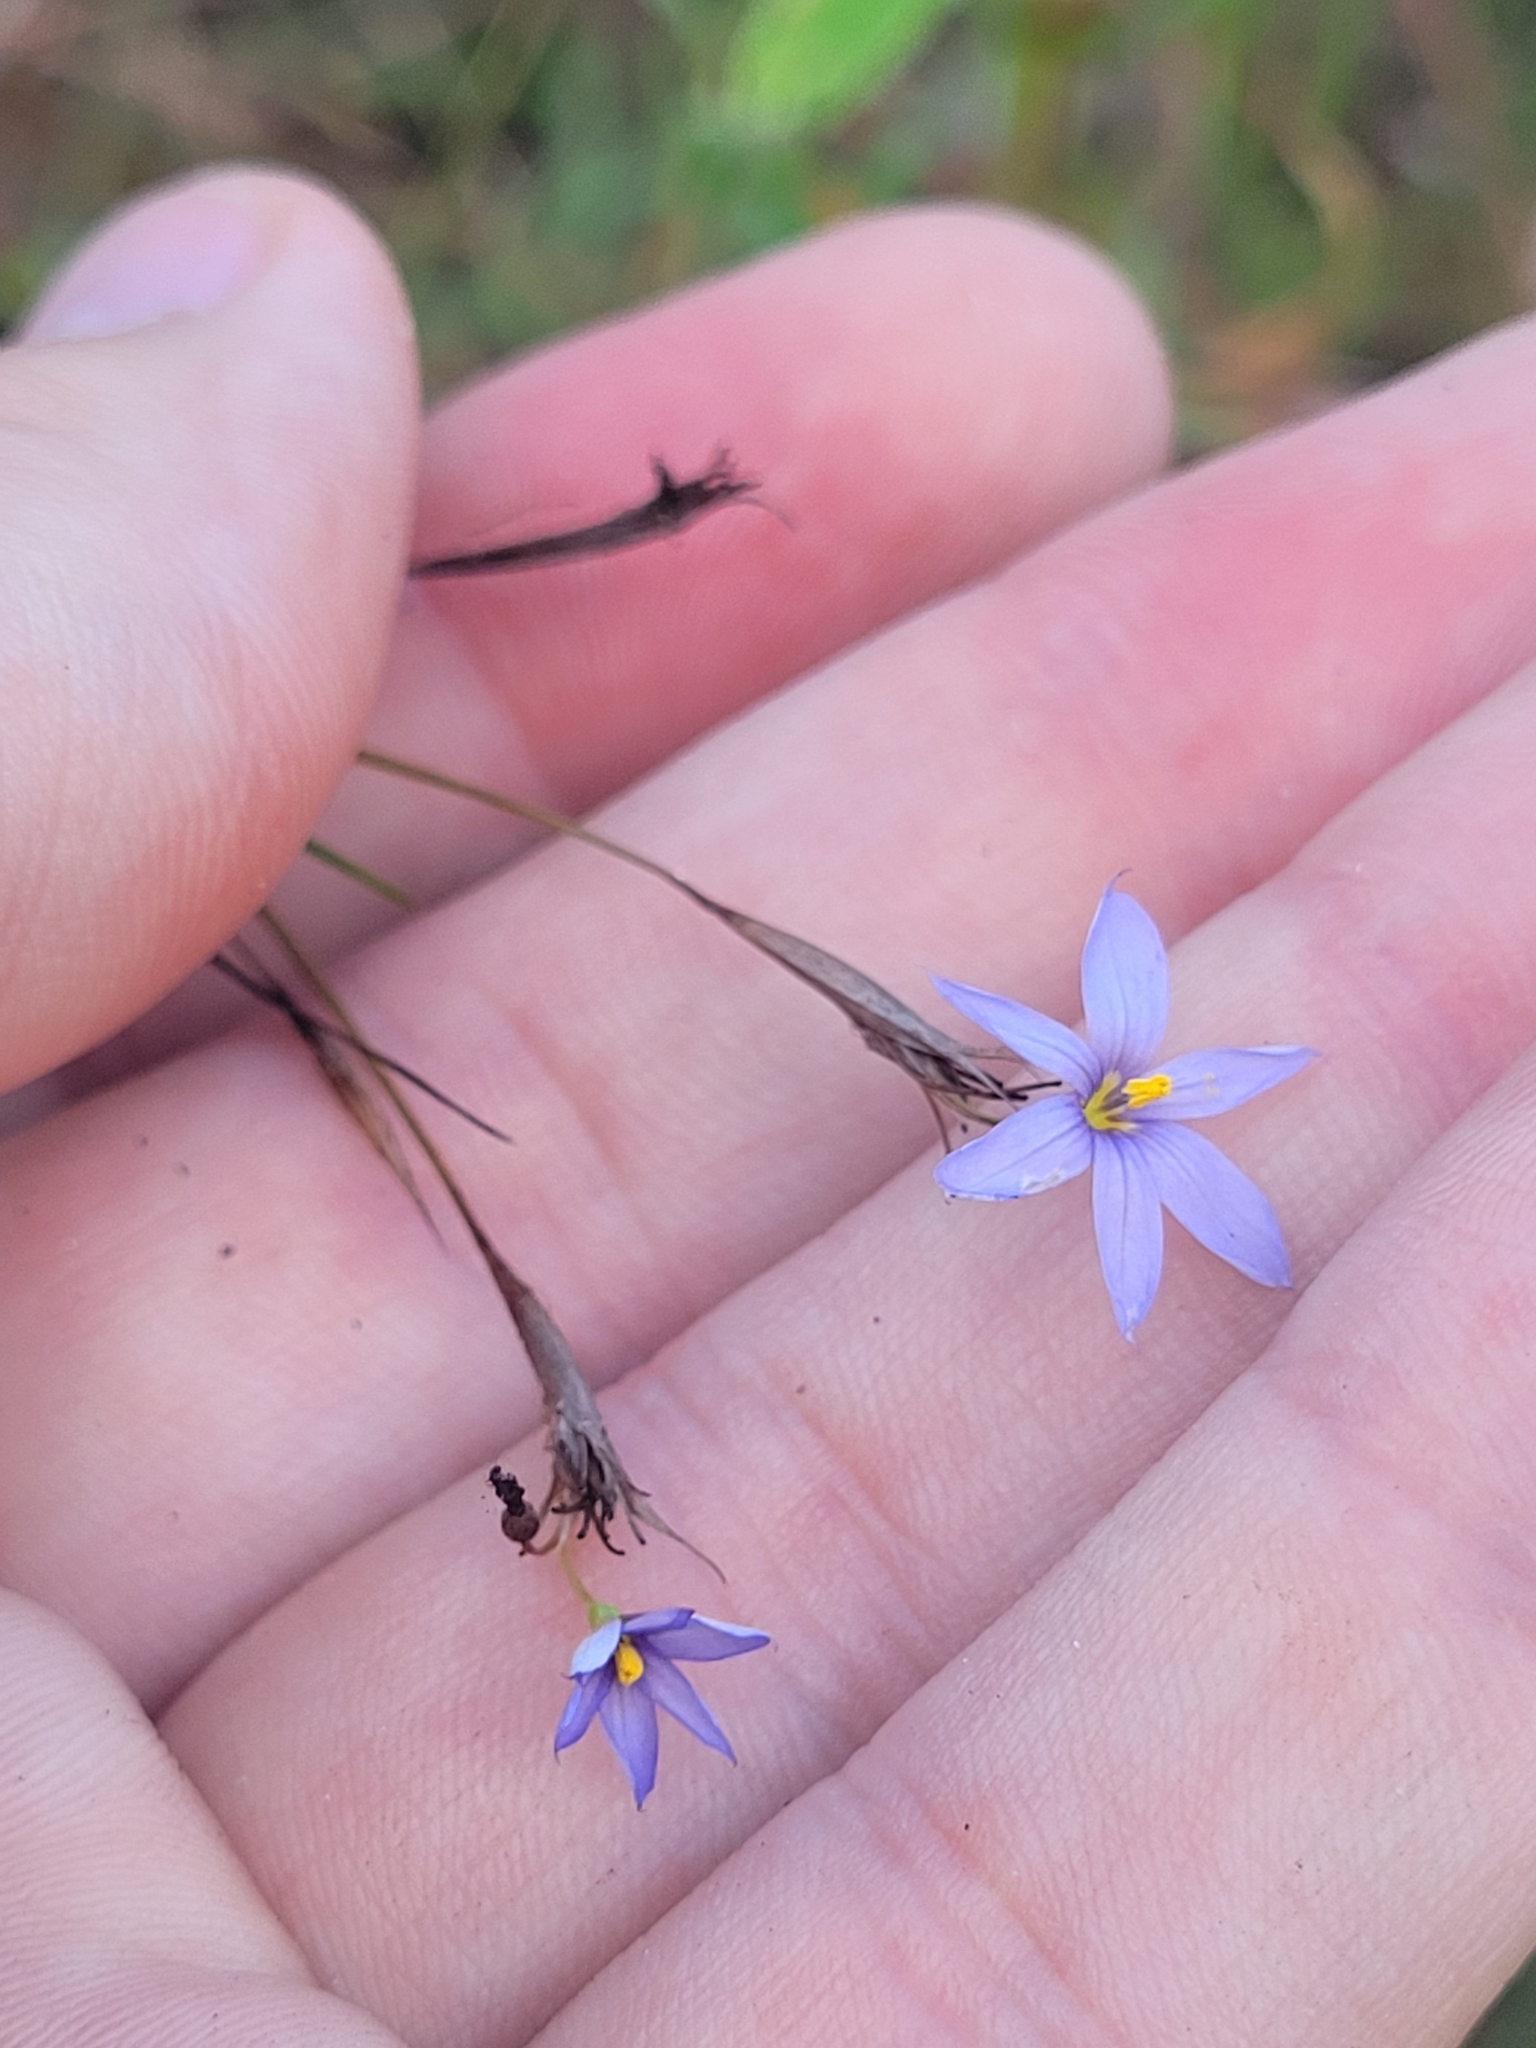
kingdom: Plantae
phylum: Tracheophyta
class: Liliopsida
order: Asparagales
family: Iridaceae
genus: Sisyrinchium
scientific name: Sisyrinchium angustifolium
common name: Narrow-leaf blue-eyed-grass
